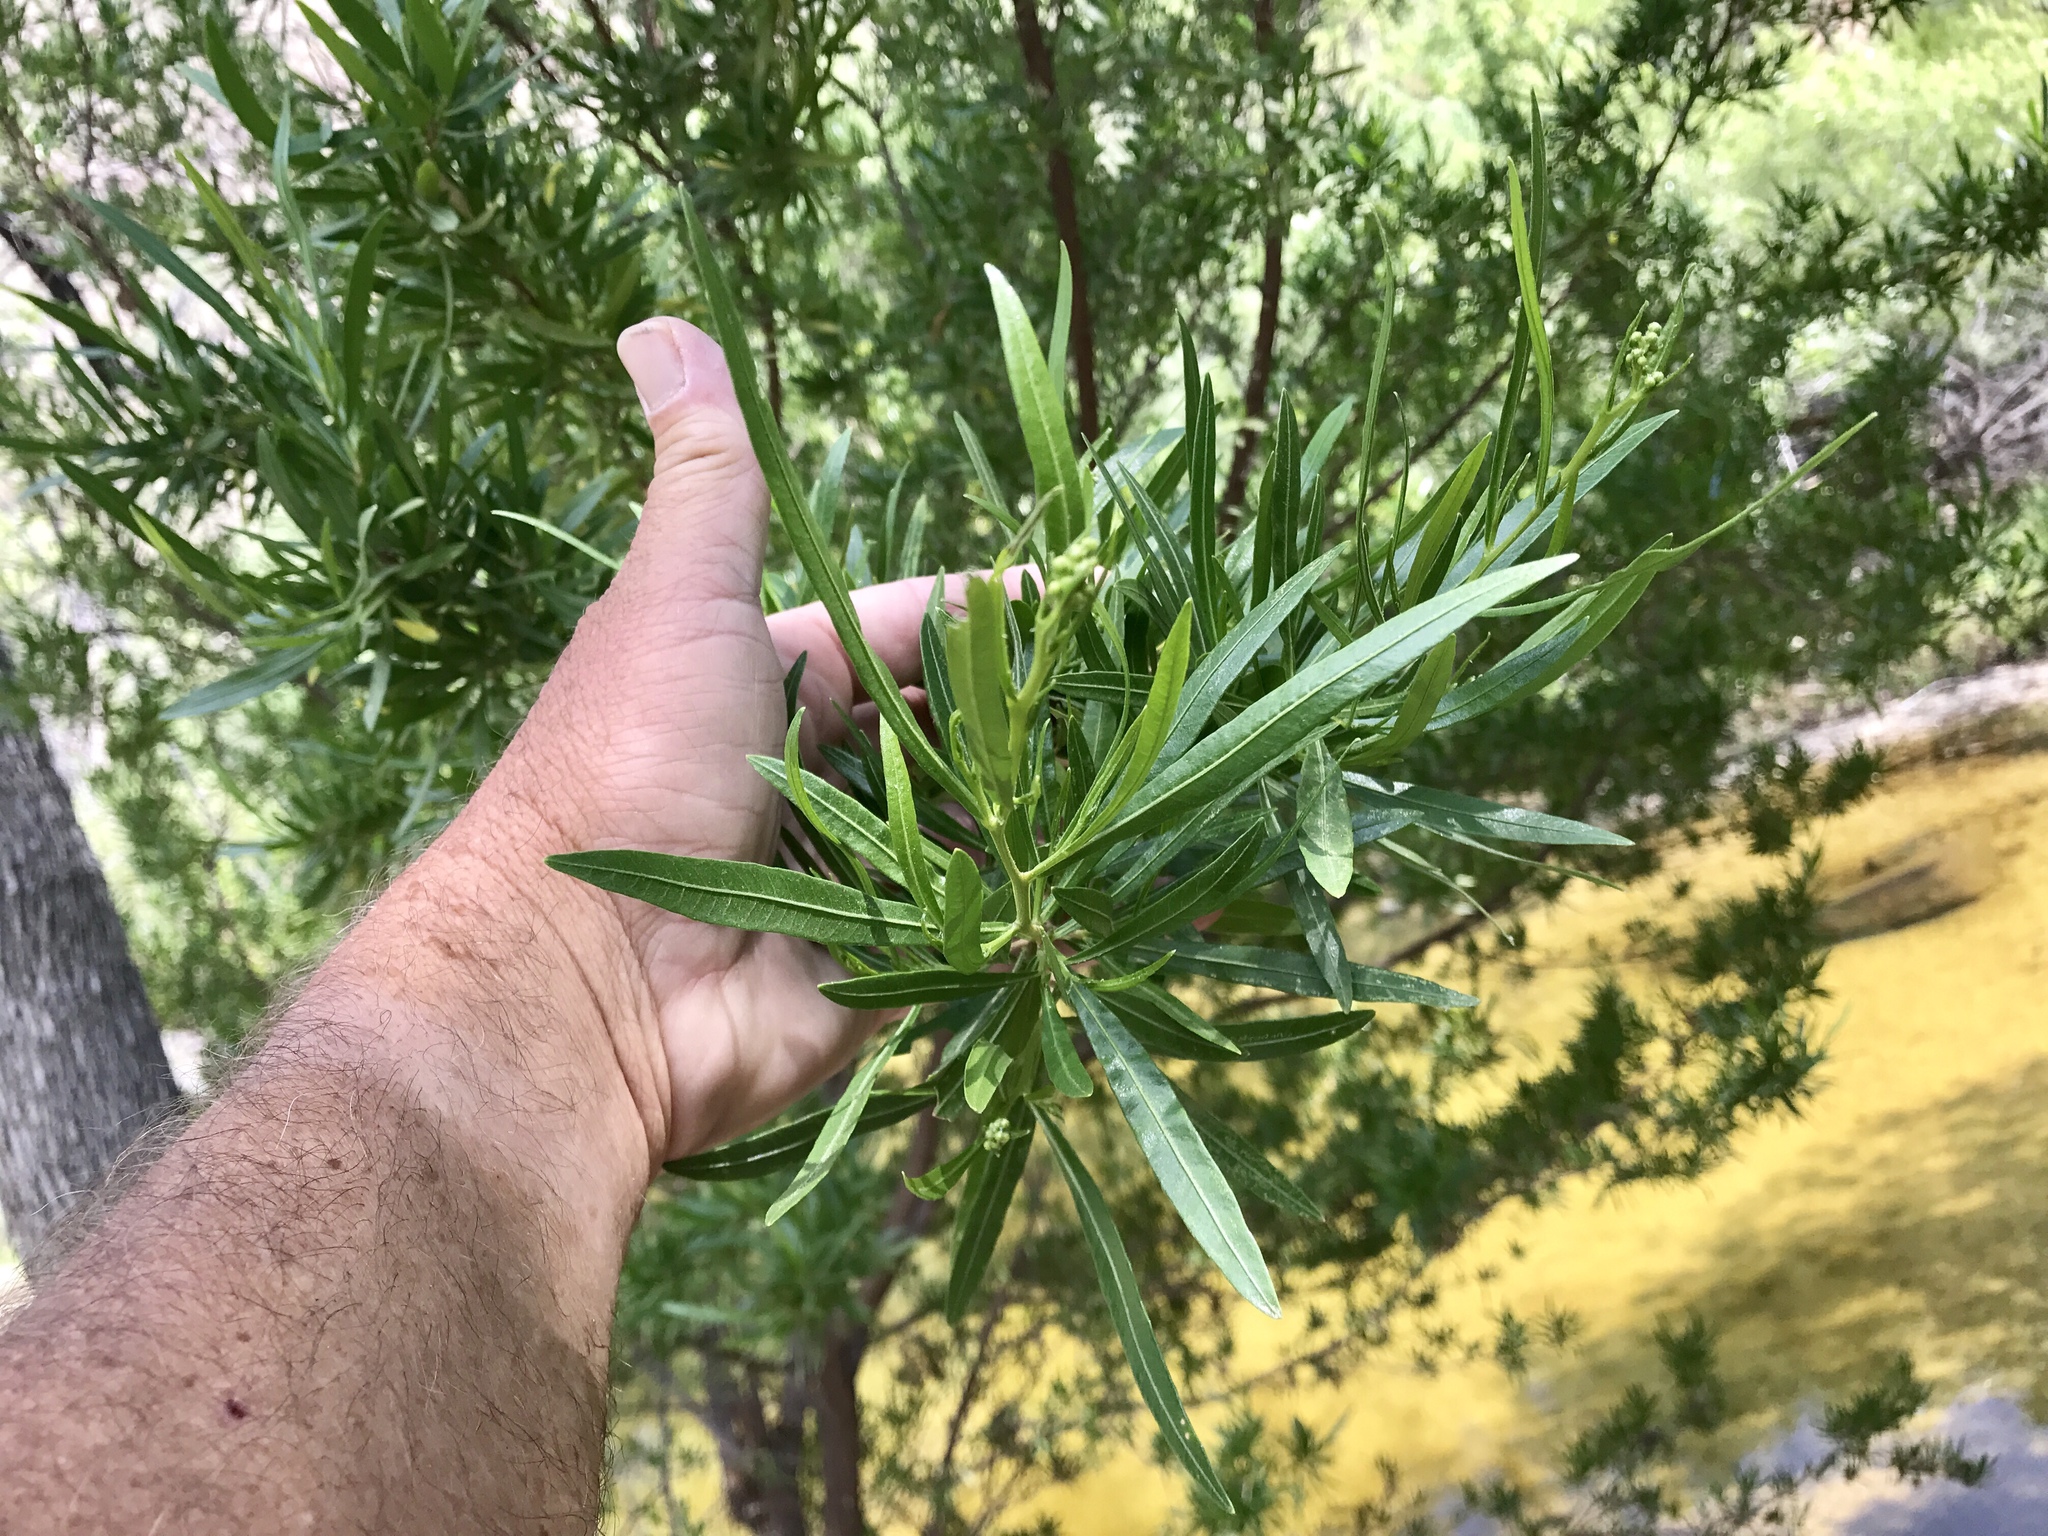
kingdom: Plantae
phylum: Tracheophyta
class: Magnoliopsida
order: Sapindales
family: Sapindaceae
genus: Dodonaea
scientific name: Dodonaea viscosa
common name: Hopbush
